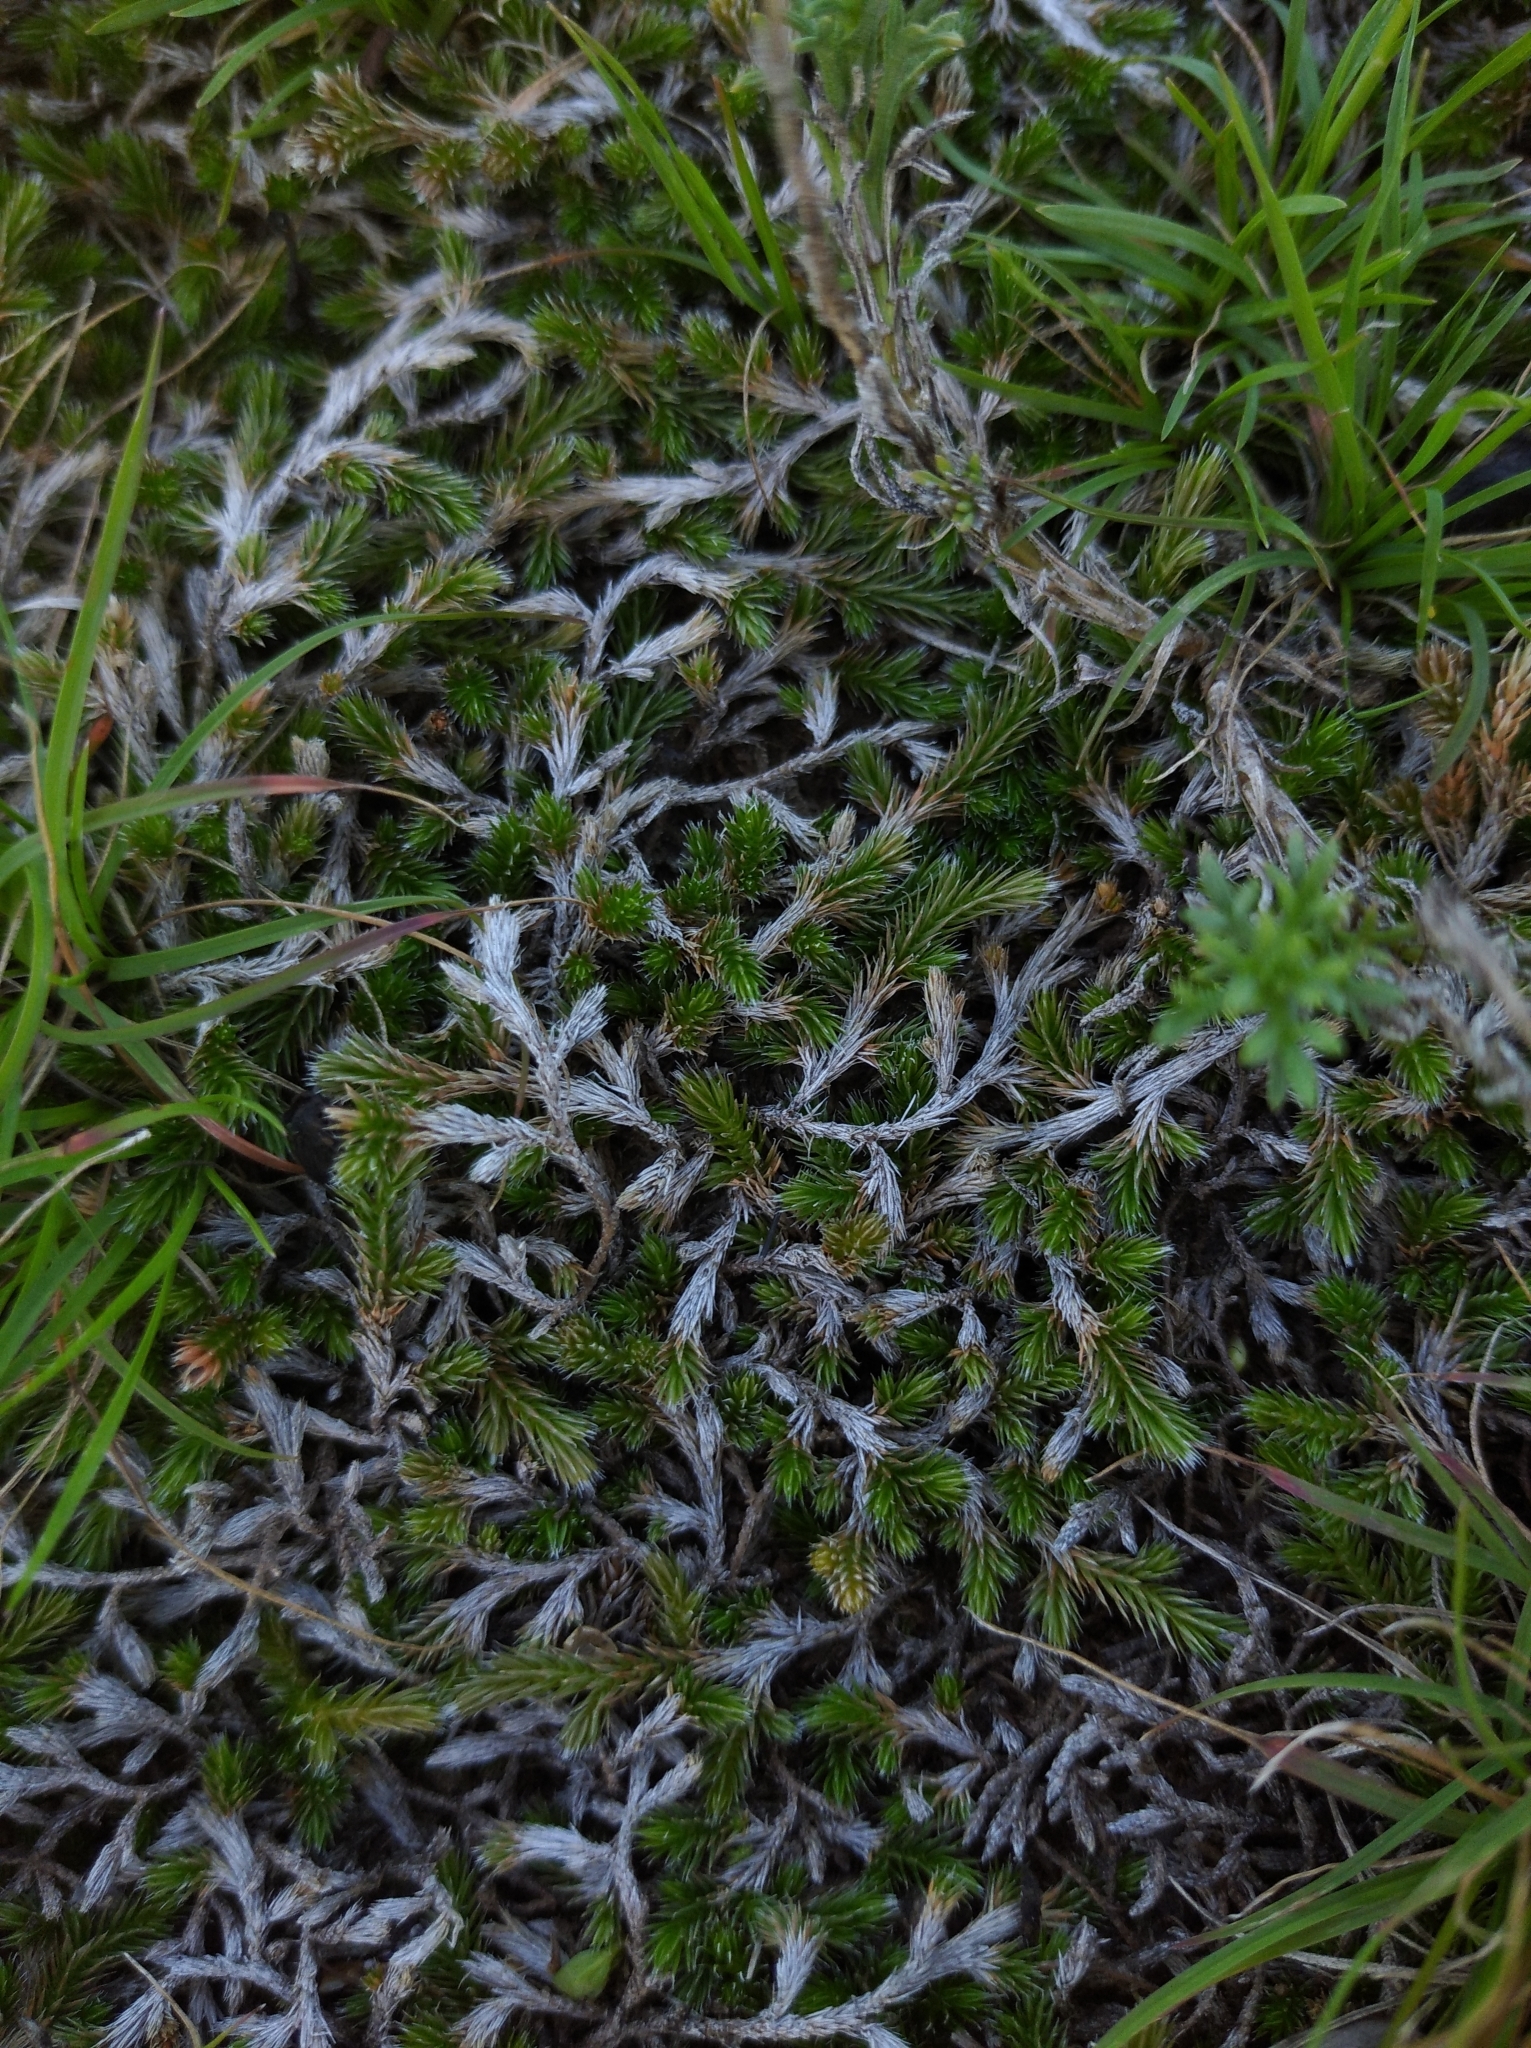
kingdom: Plantae
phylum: Tracheophyta
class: Lycopodiopsida
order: Selaginellales
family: Selaginellaceae
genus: Selaginella
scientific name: Selaginella sellowii
